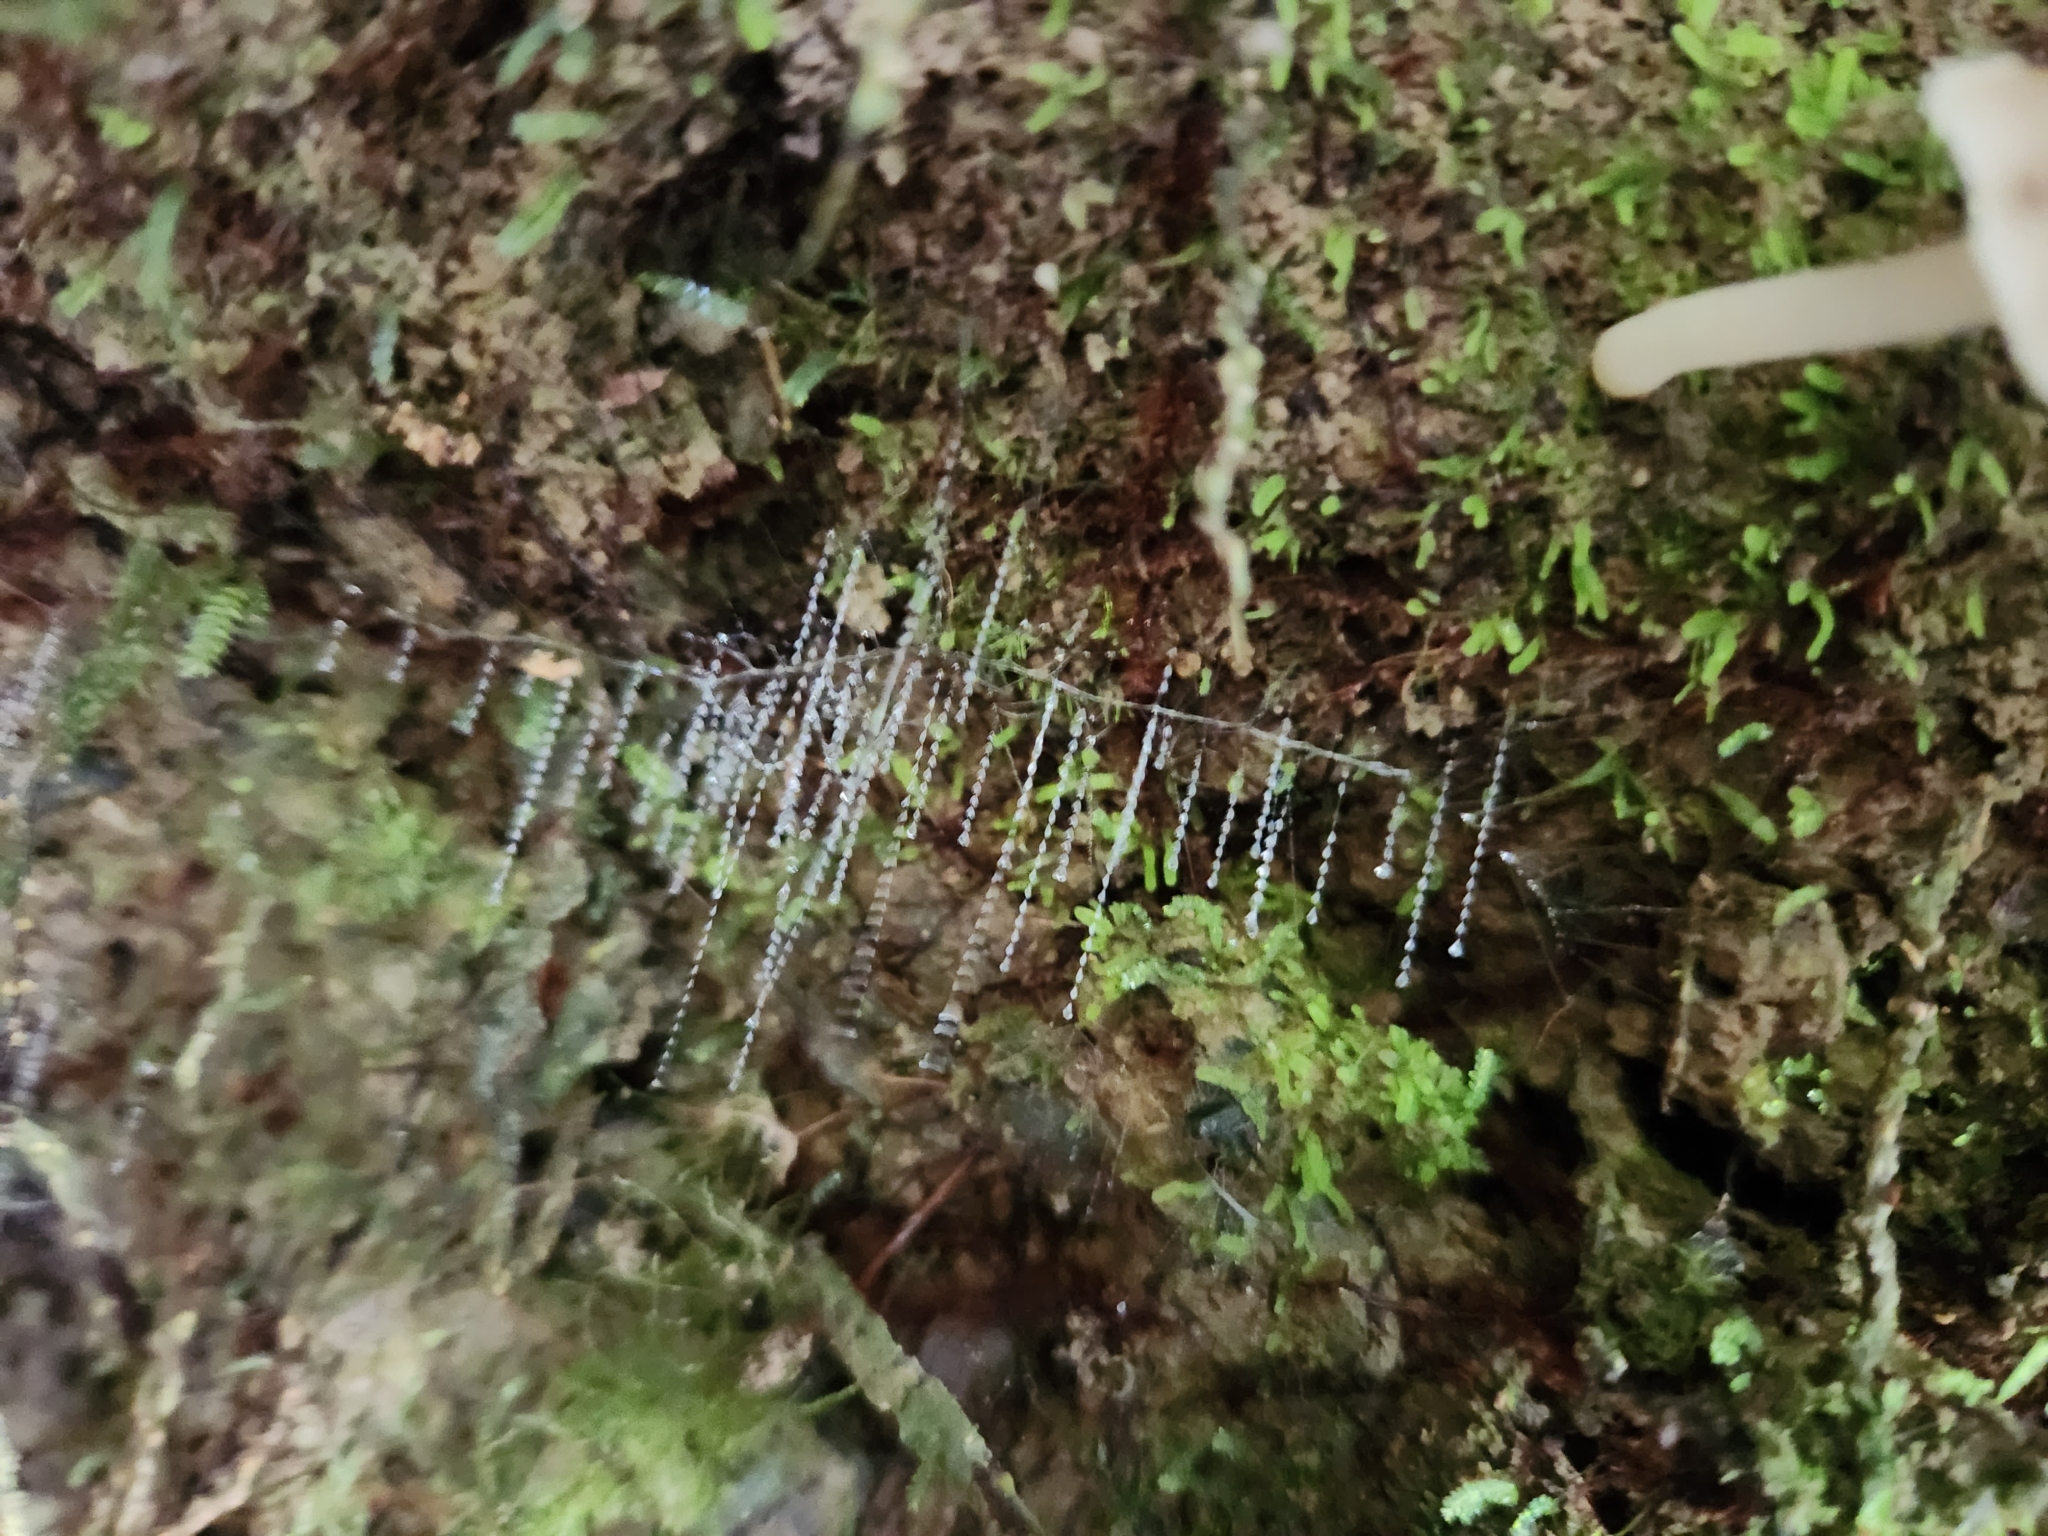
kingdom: Animalia
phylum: Arthropoda
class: Insecta
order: Diptera
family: Keroplatidae
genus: Arachnocampa
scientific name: Arachnocampa luminosa
